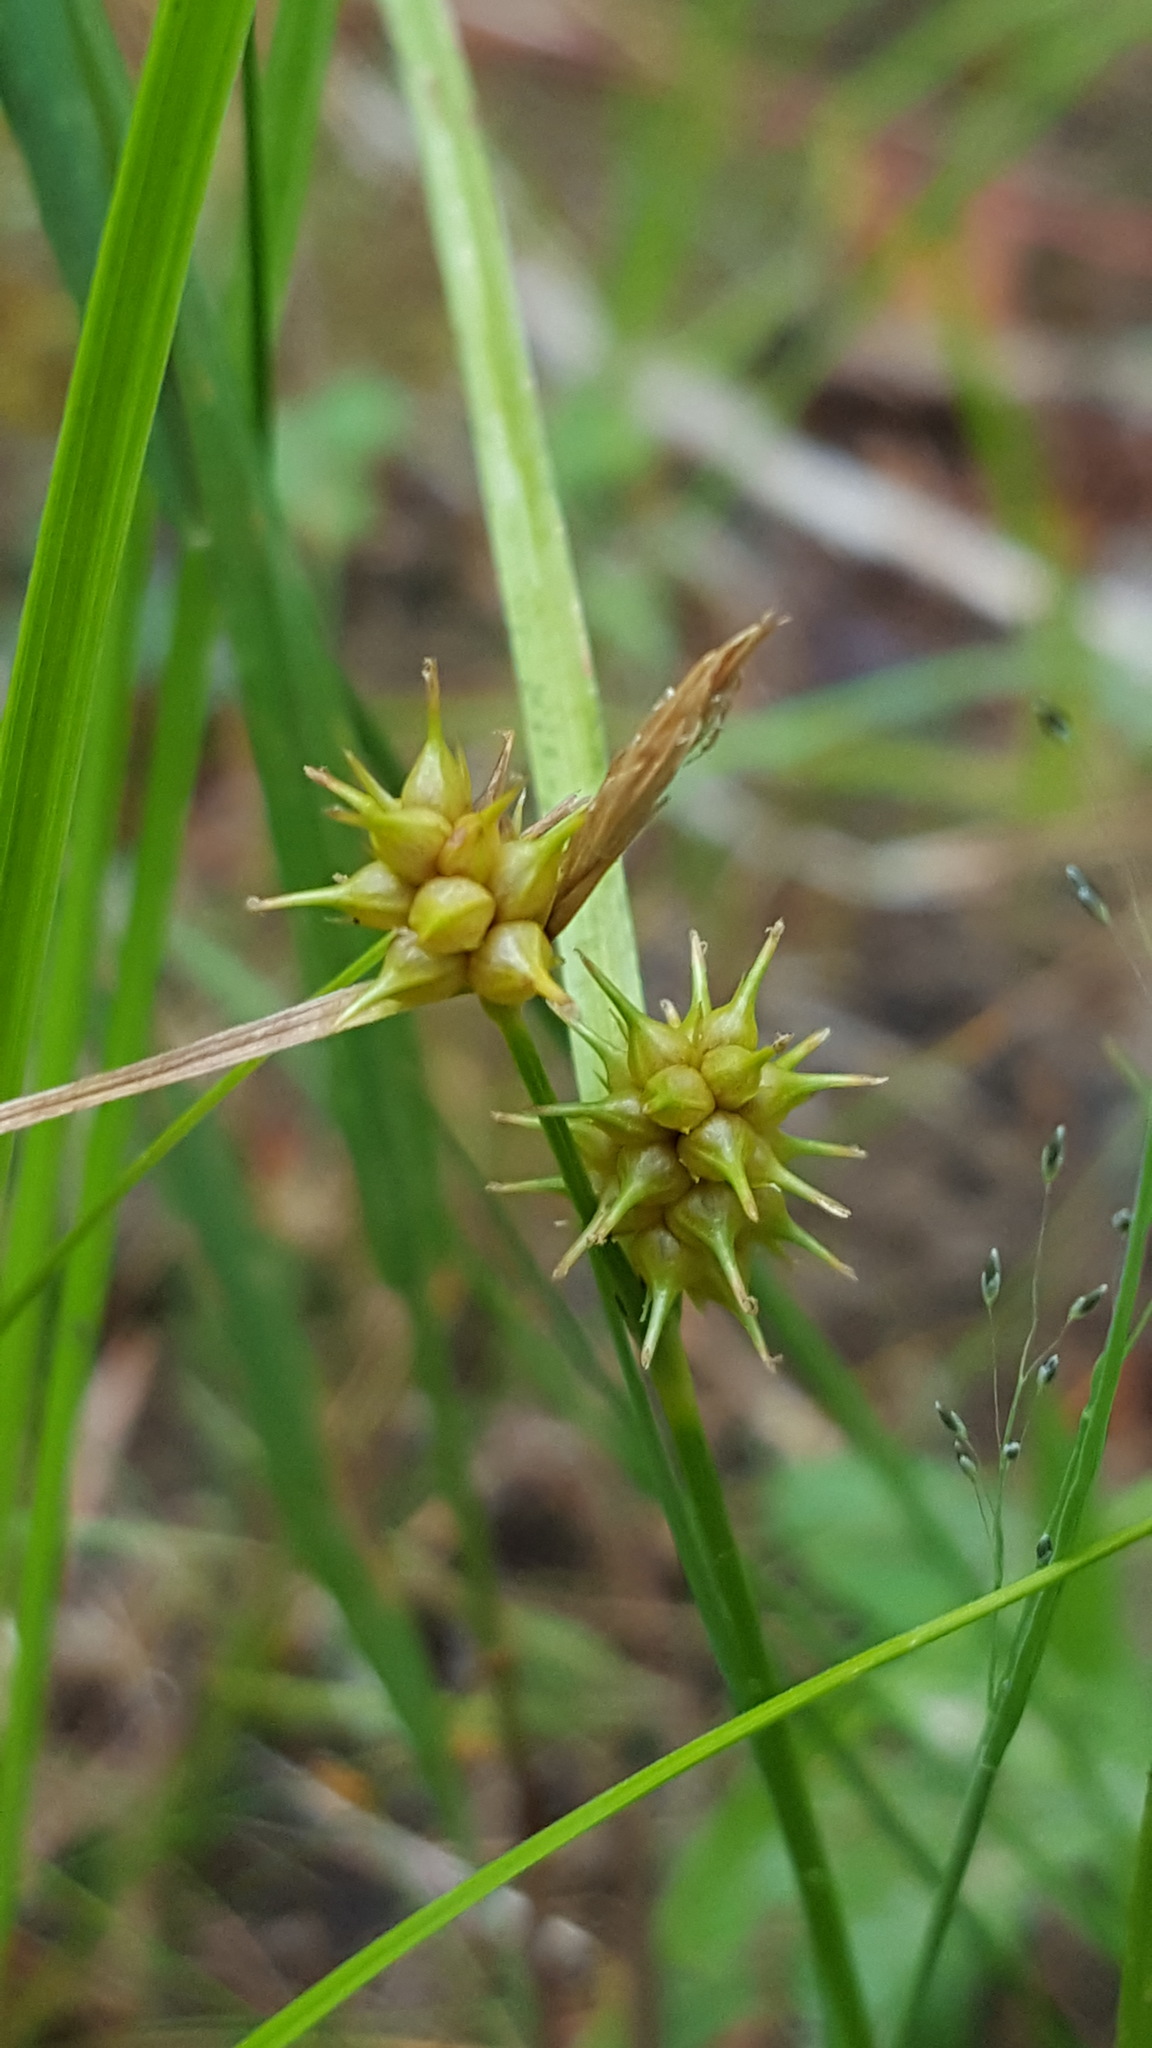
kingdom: Plantae
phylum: Tracheophyta
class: Liliopsida
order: Poales
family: Cyperaceae
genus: Carex
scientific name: Carex cryptolepis
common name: Northeastern sedge
